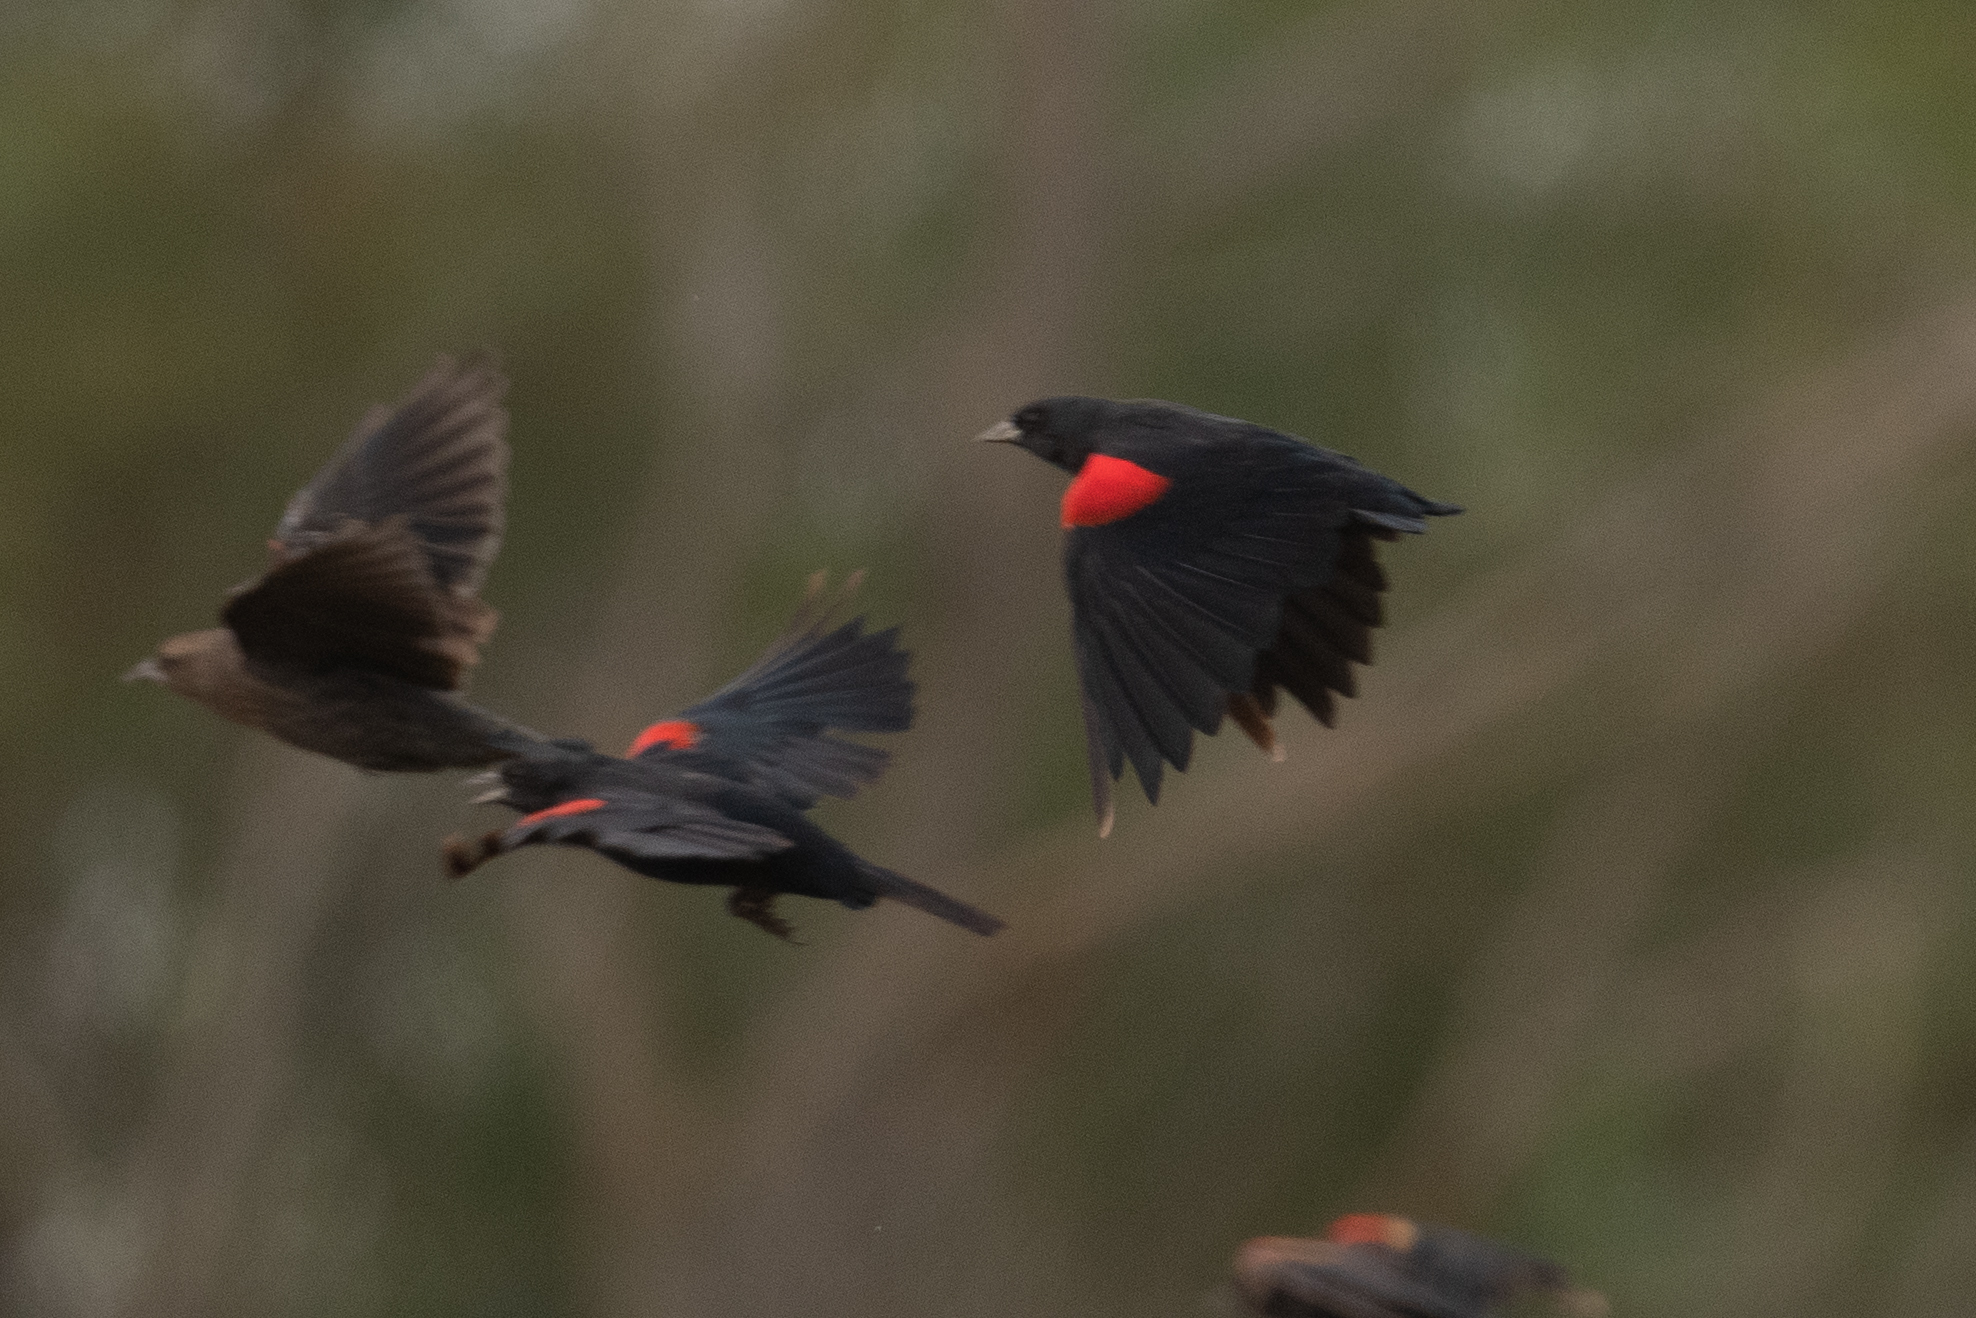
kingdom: Animalia
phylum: Chordata
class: Aves
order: Passeriformes
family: Icteridae
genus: Agelaius
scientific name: Agelaius tricolor
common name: Tricolored blackbird
